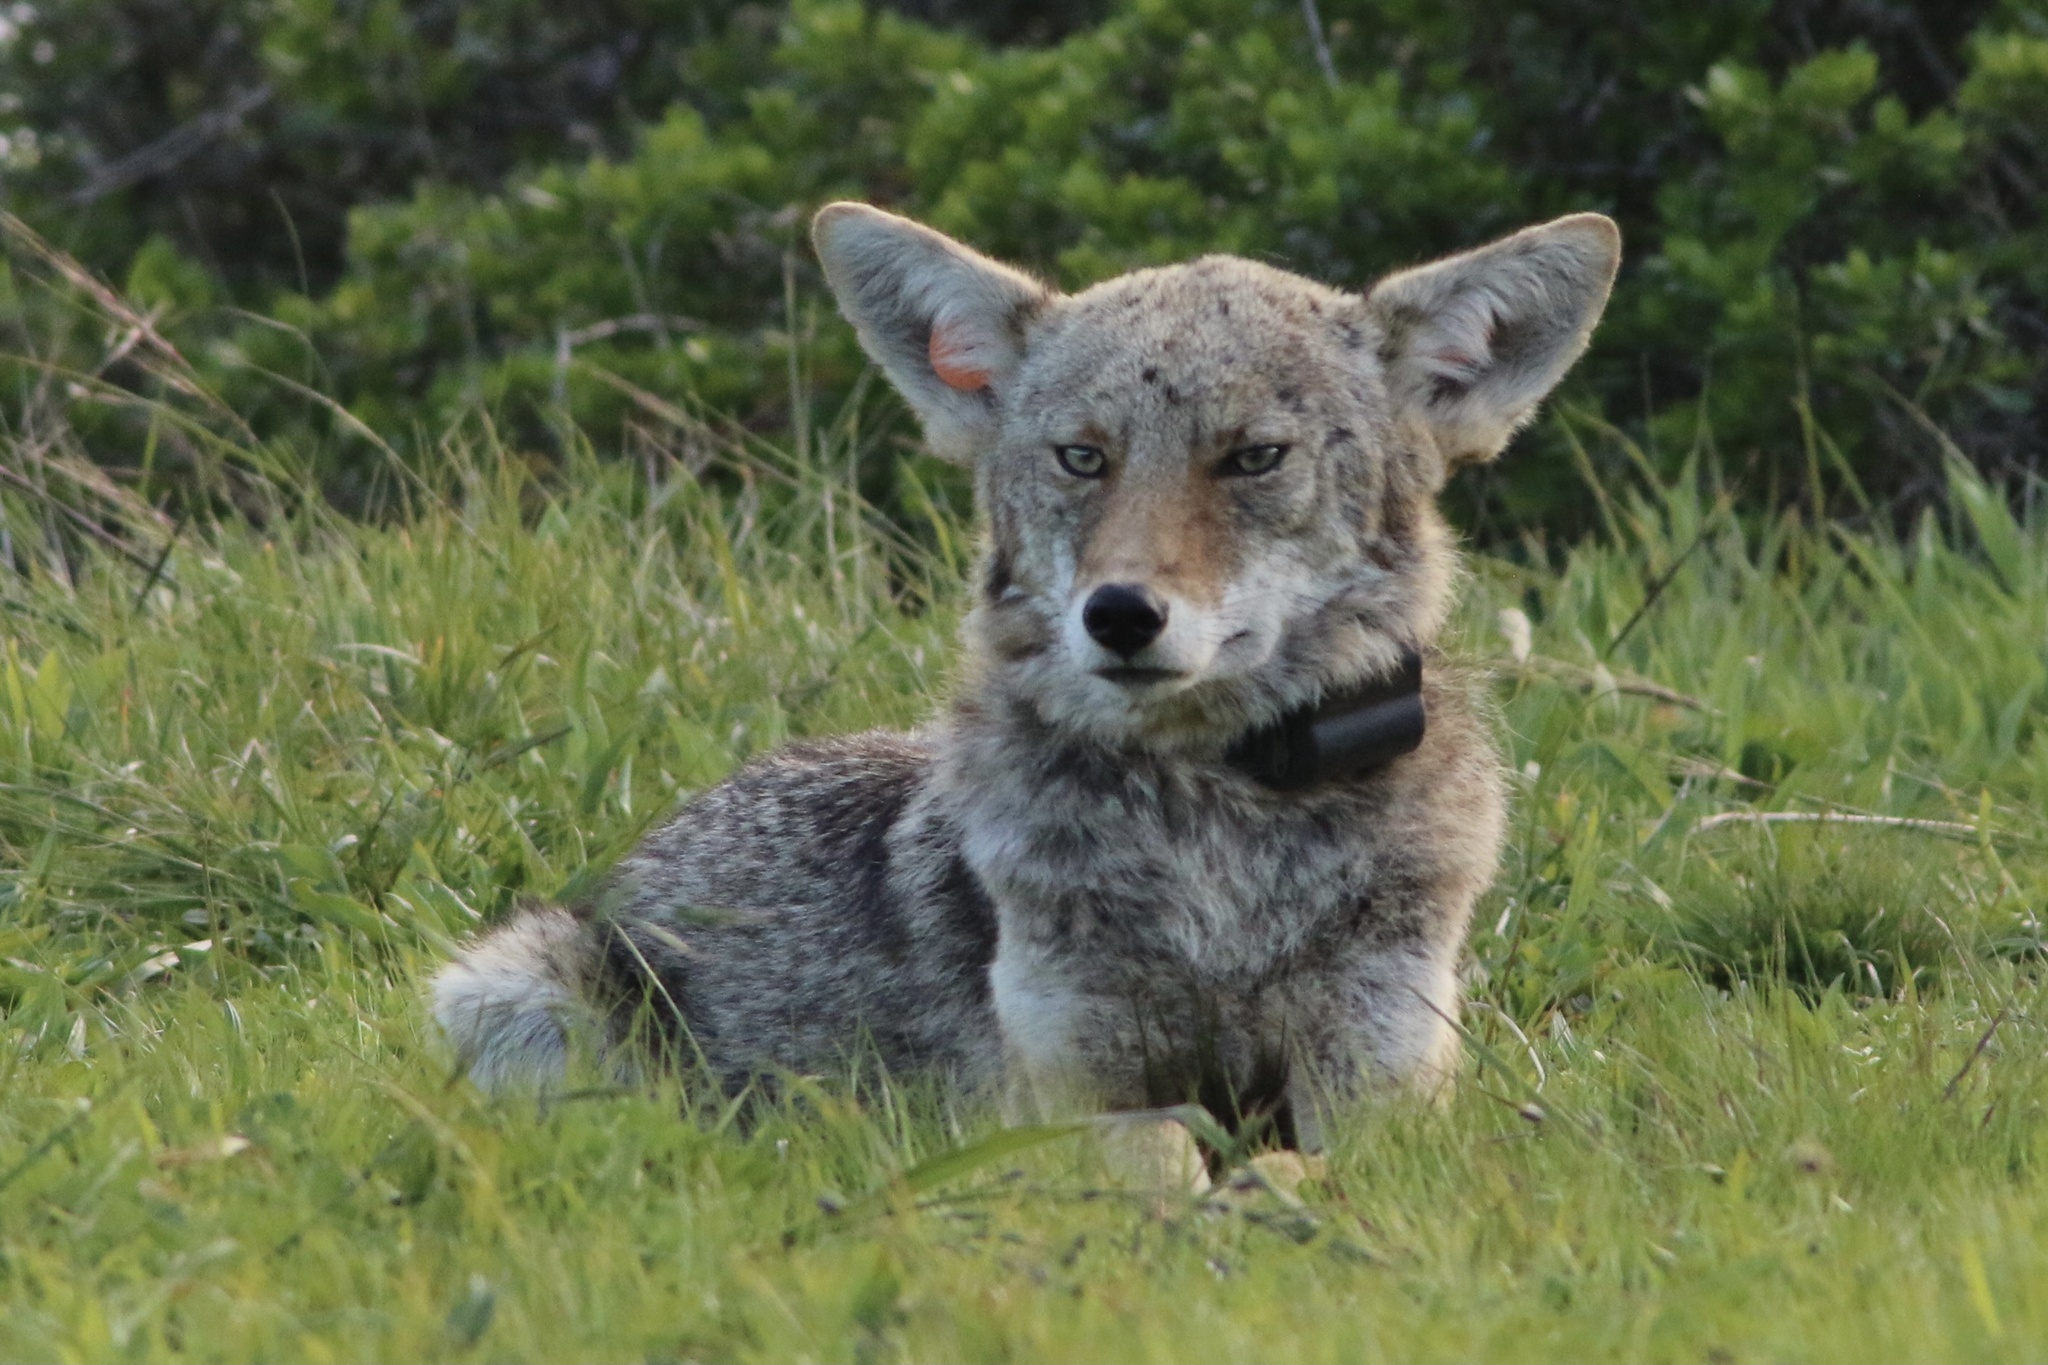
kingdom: Animalia
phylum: Chordata
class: Mammalia
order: Carnivora
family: Canidae
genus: Canis
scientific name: Canis latrans
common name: Coyote
